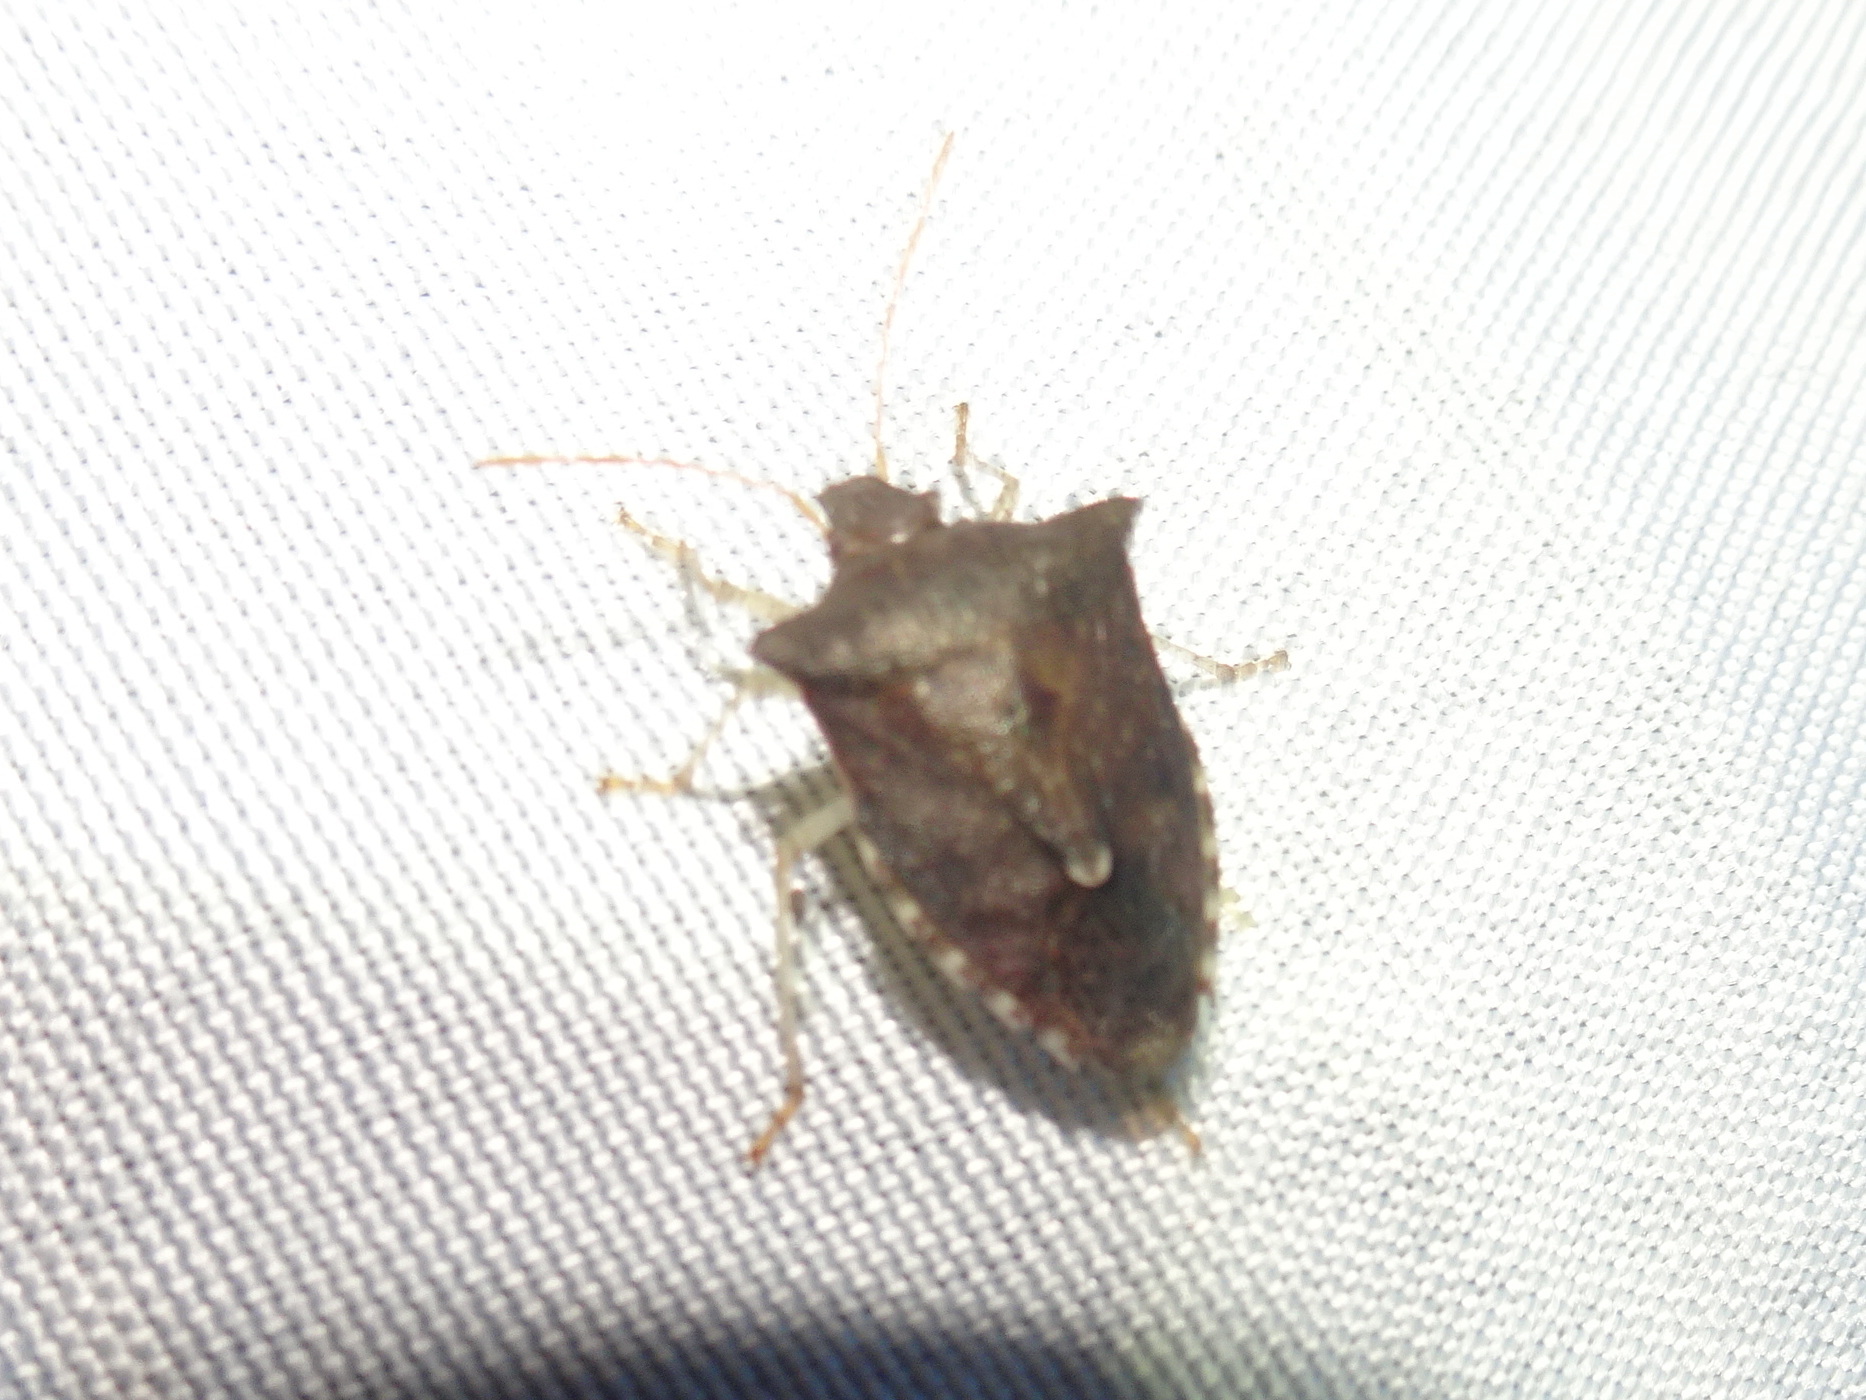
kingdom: Animalia
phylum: Arthropoda
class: Insecta
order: Hemiptera
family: Pentatomidae
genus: Euschistus
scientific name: Euschistus tristigmus
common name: Dusky stink bug
